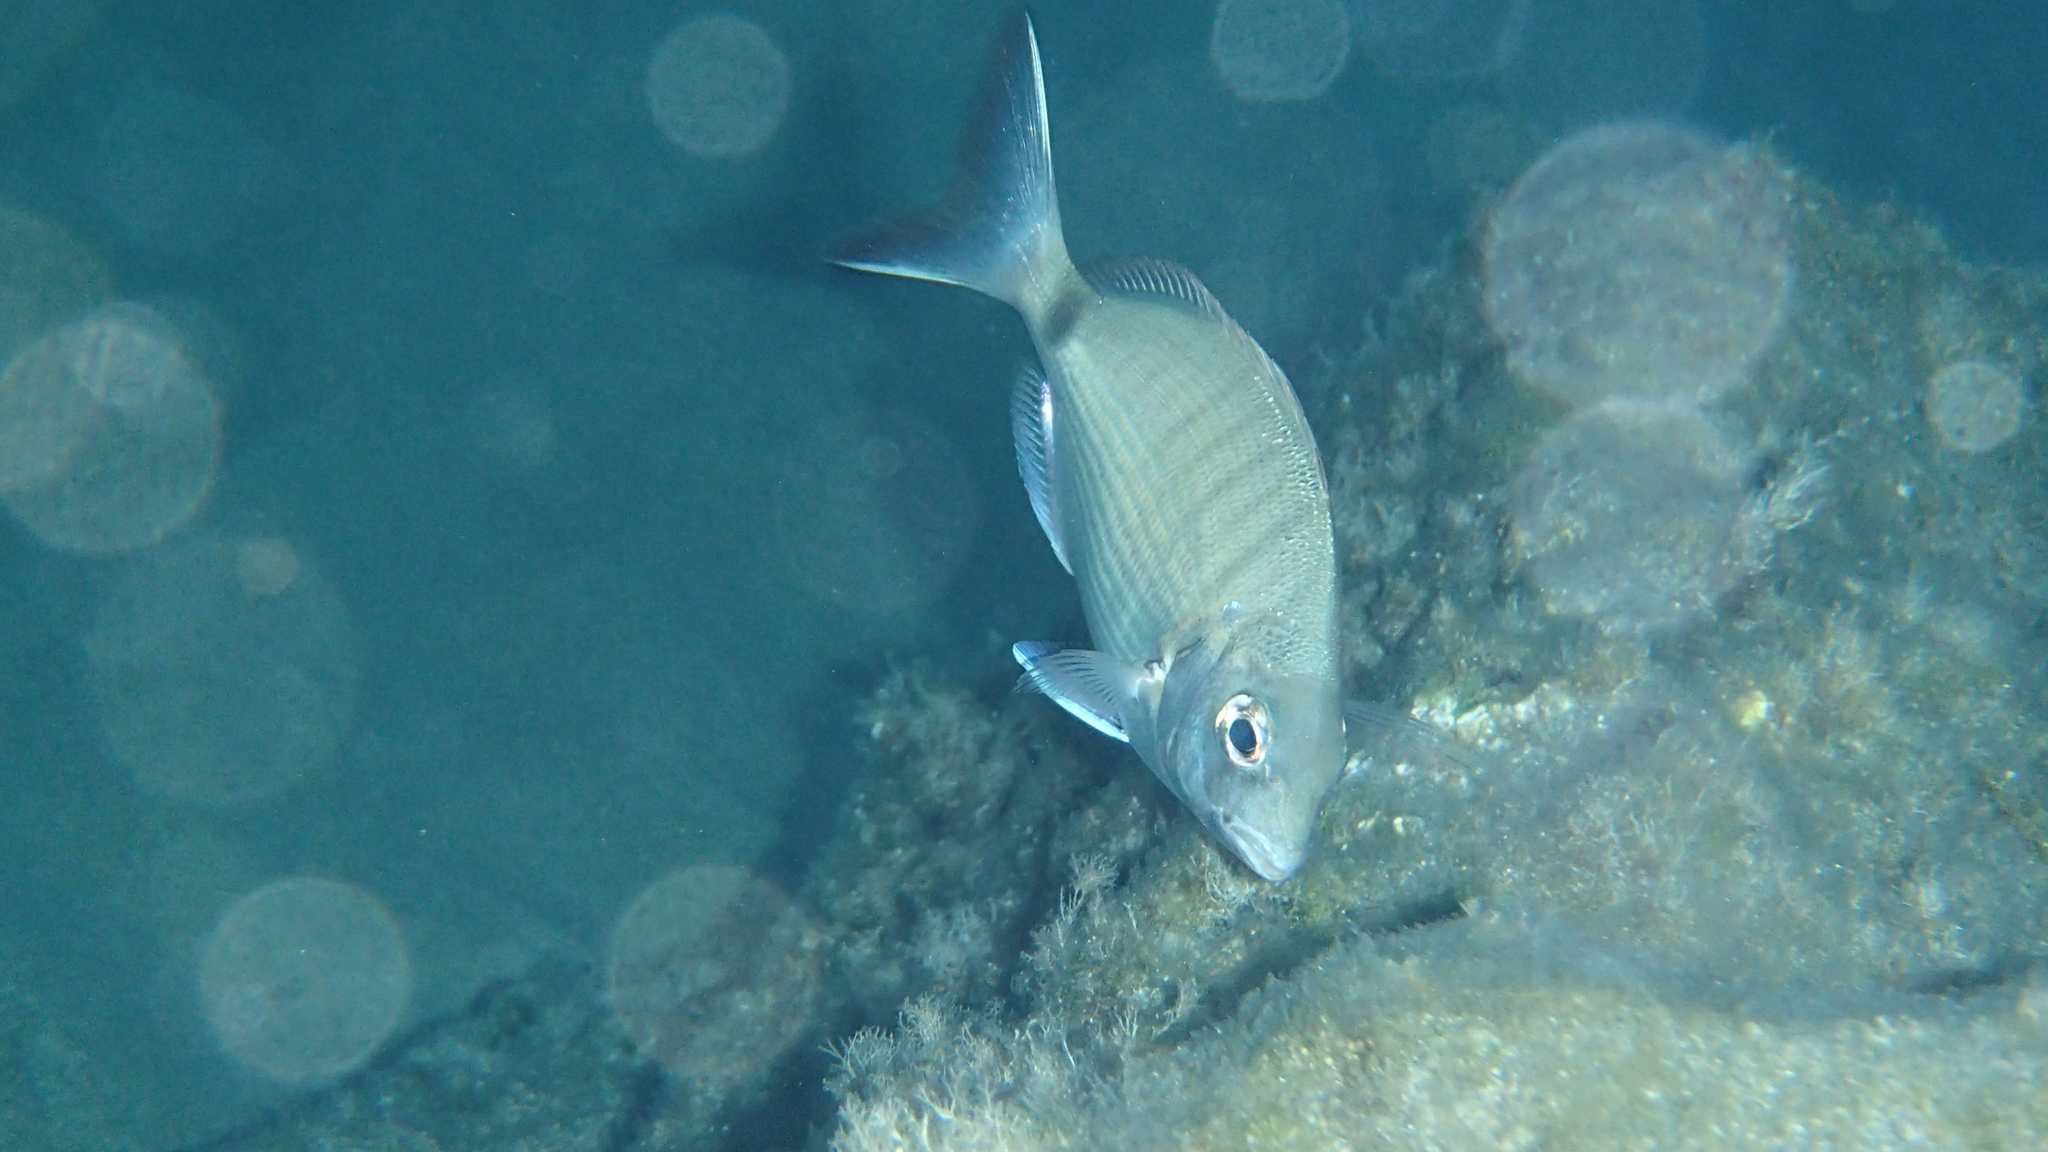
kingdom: Animalia
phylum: Chordata
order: Perciformes
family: Sparidae
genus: Diplodus
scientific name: Diplodus sargus
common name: White seabream
